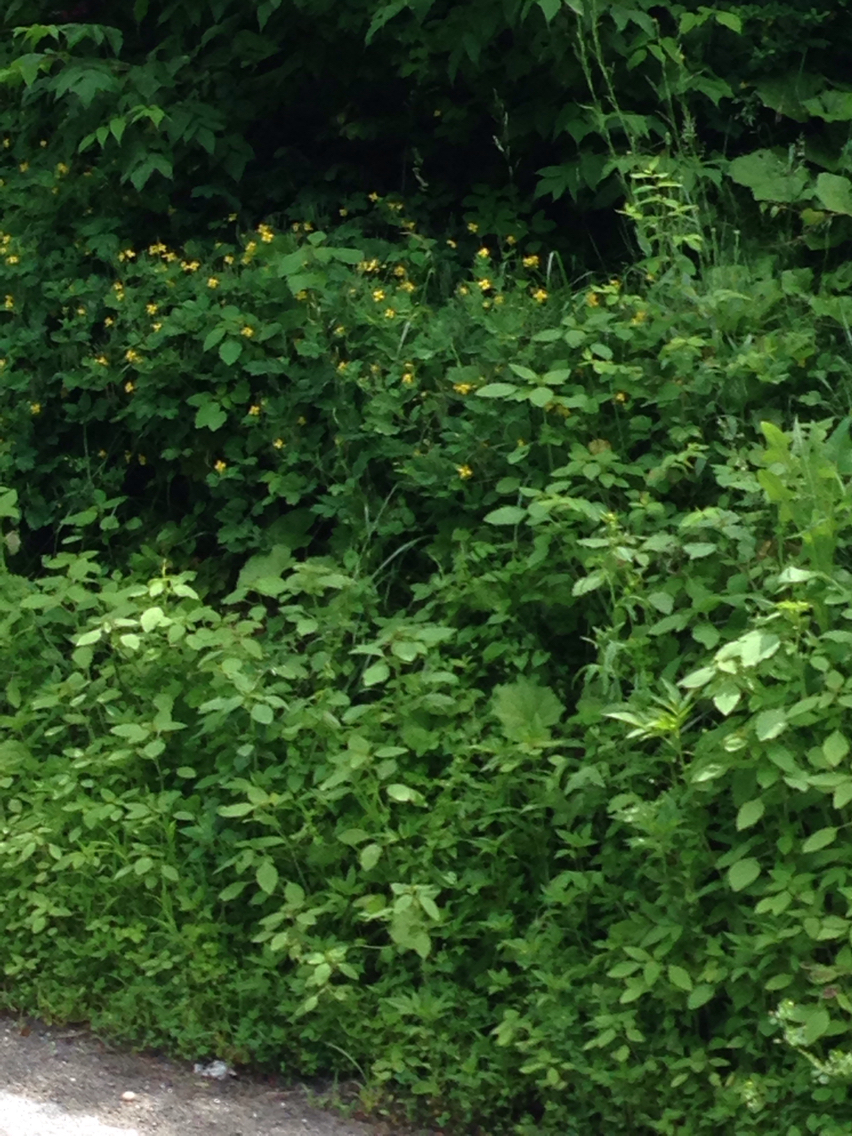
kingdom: Plantae
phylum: Tracheophyta
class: Magnoliopsida
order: Ranunculales
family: Papaveraceae
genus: Chelidonium
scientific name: Chelidonium majus
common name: Greater celandine
